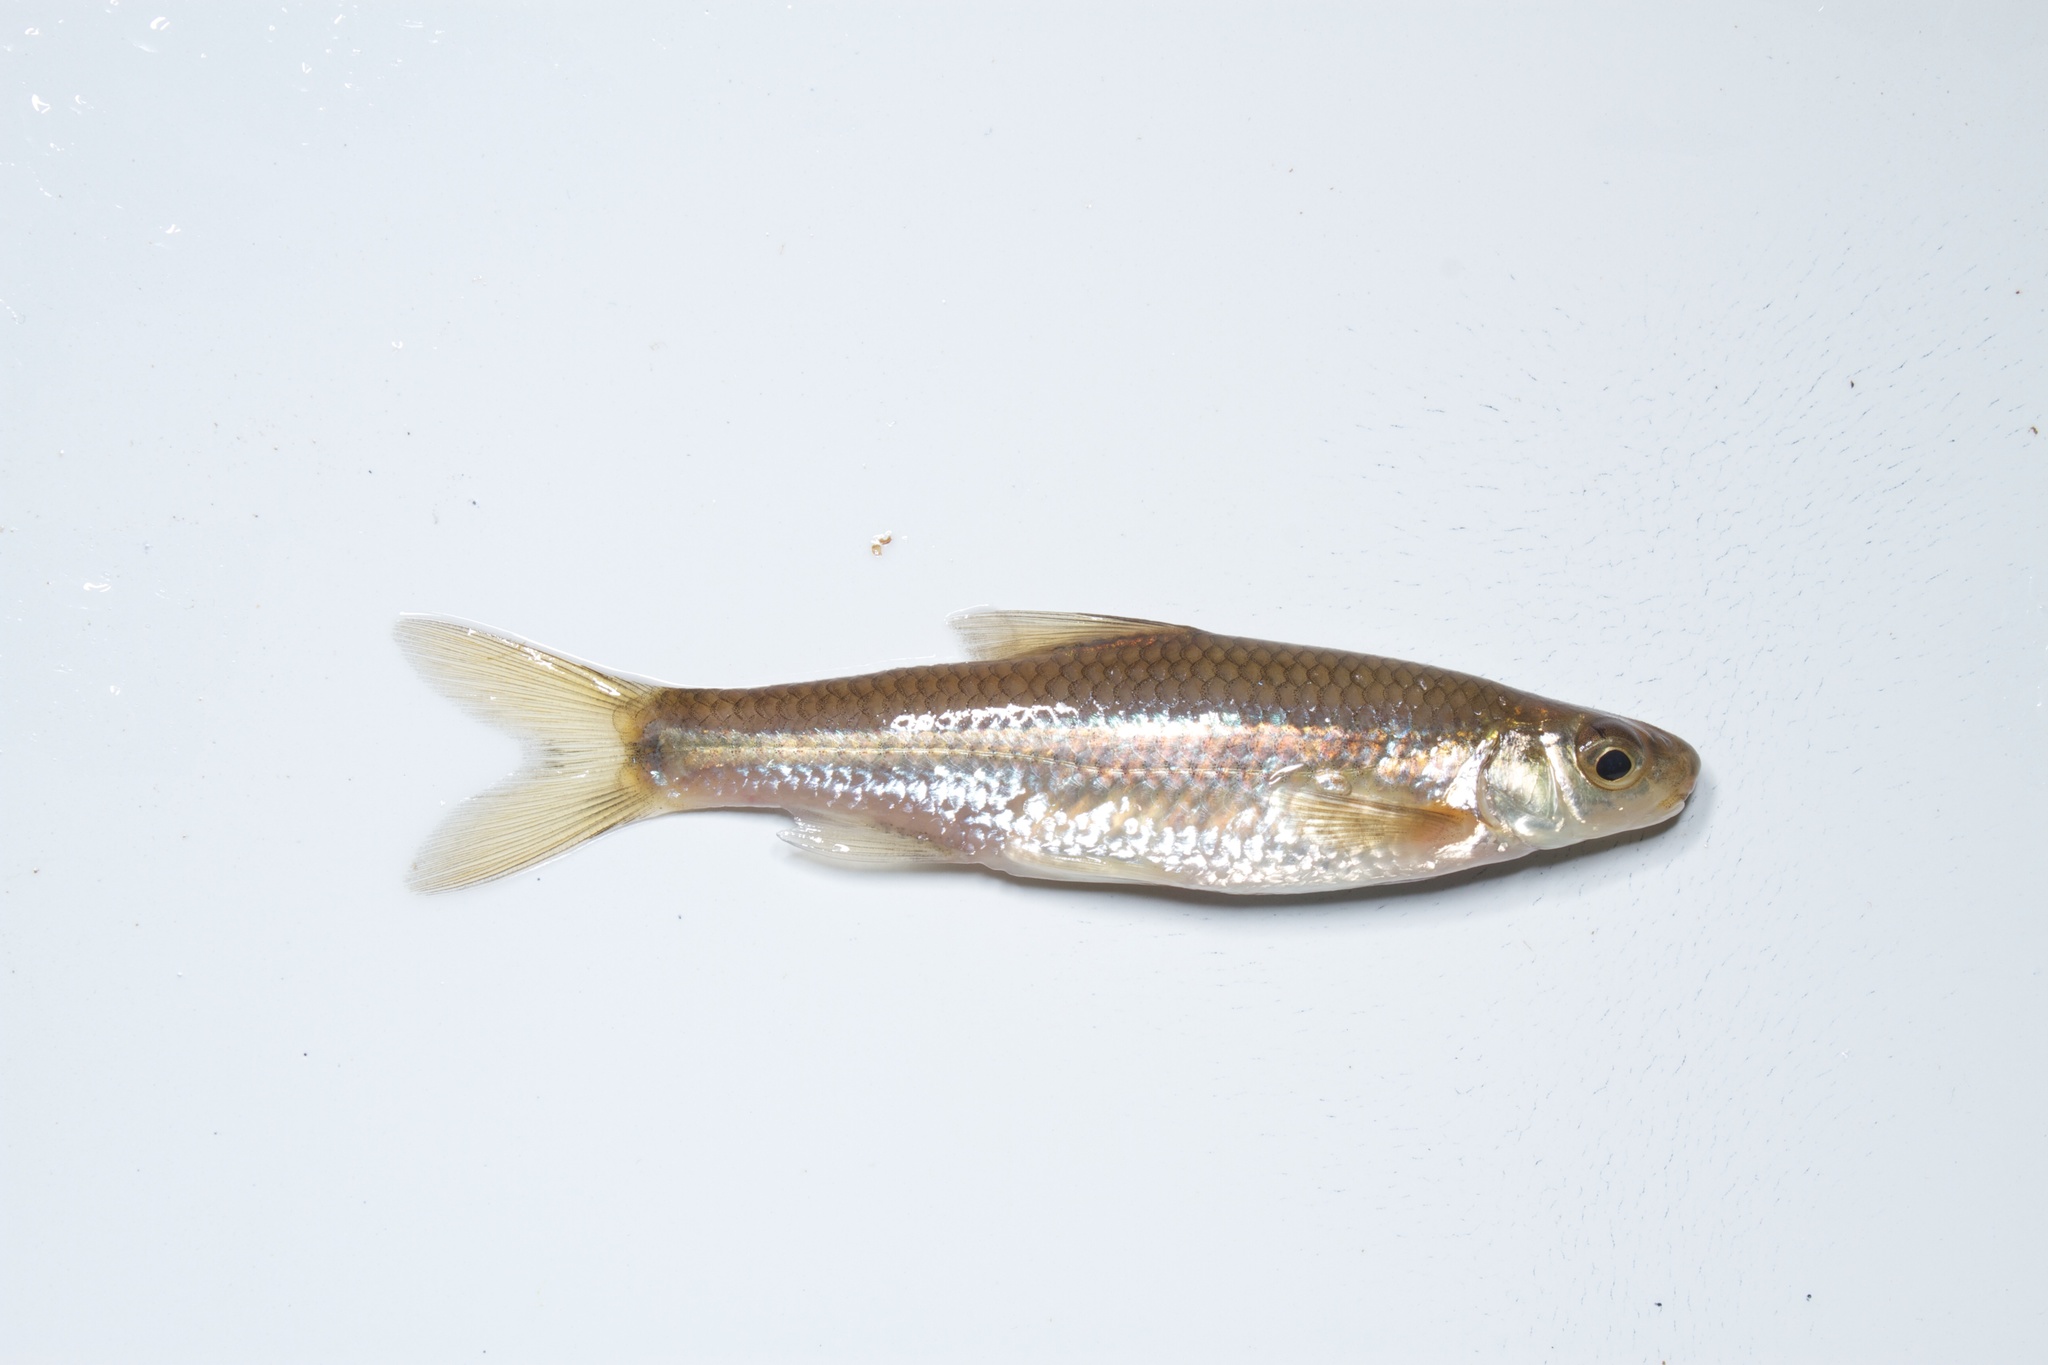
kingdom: Animalia
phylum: Chordata
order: Cypriniformes
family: Cyprinidae
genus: Notropis
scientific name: Notropis
